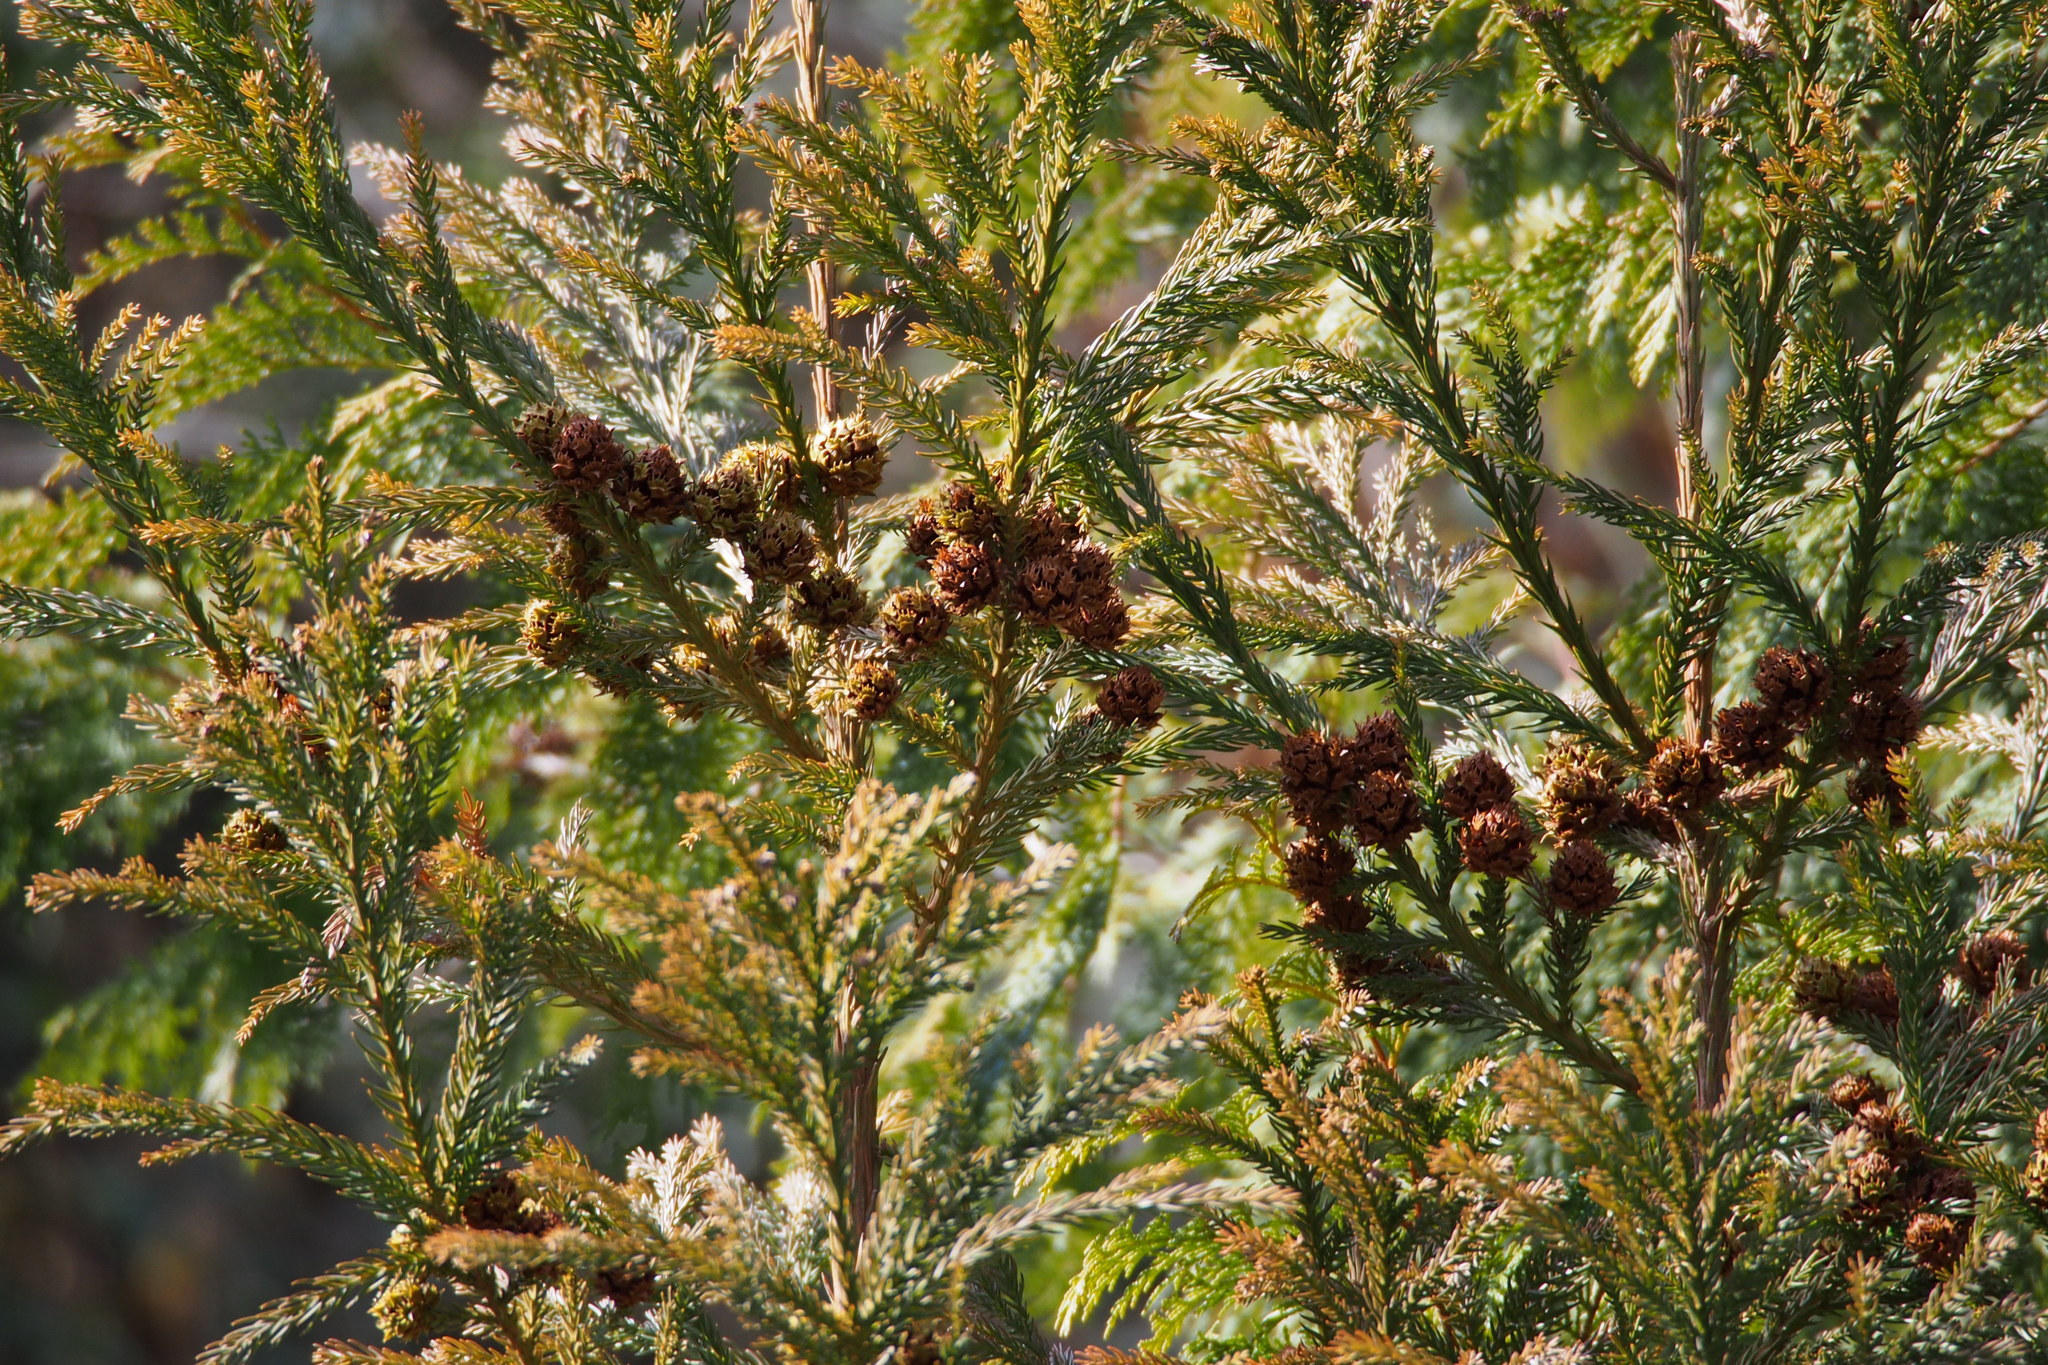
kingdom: Plantae
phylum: Tracheophyta
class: Pinopsida
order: Pinales
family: Cupressaceae
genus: Cryptomeria
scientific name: Cryptomeria japonica
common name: Japanese cedar
